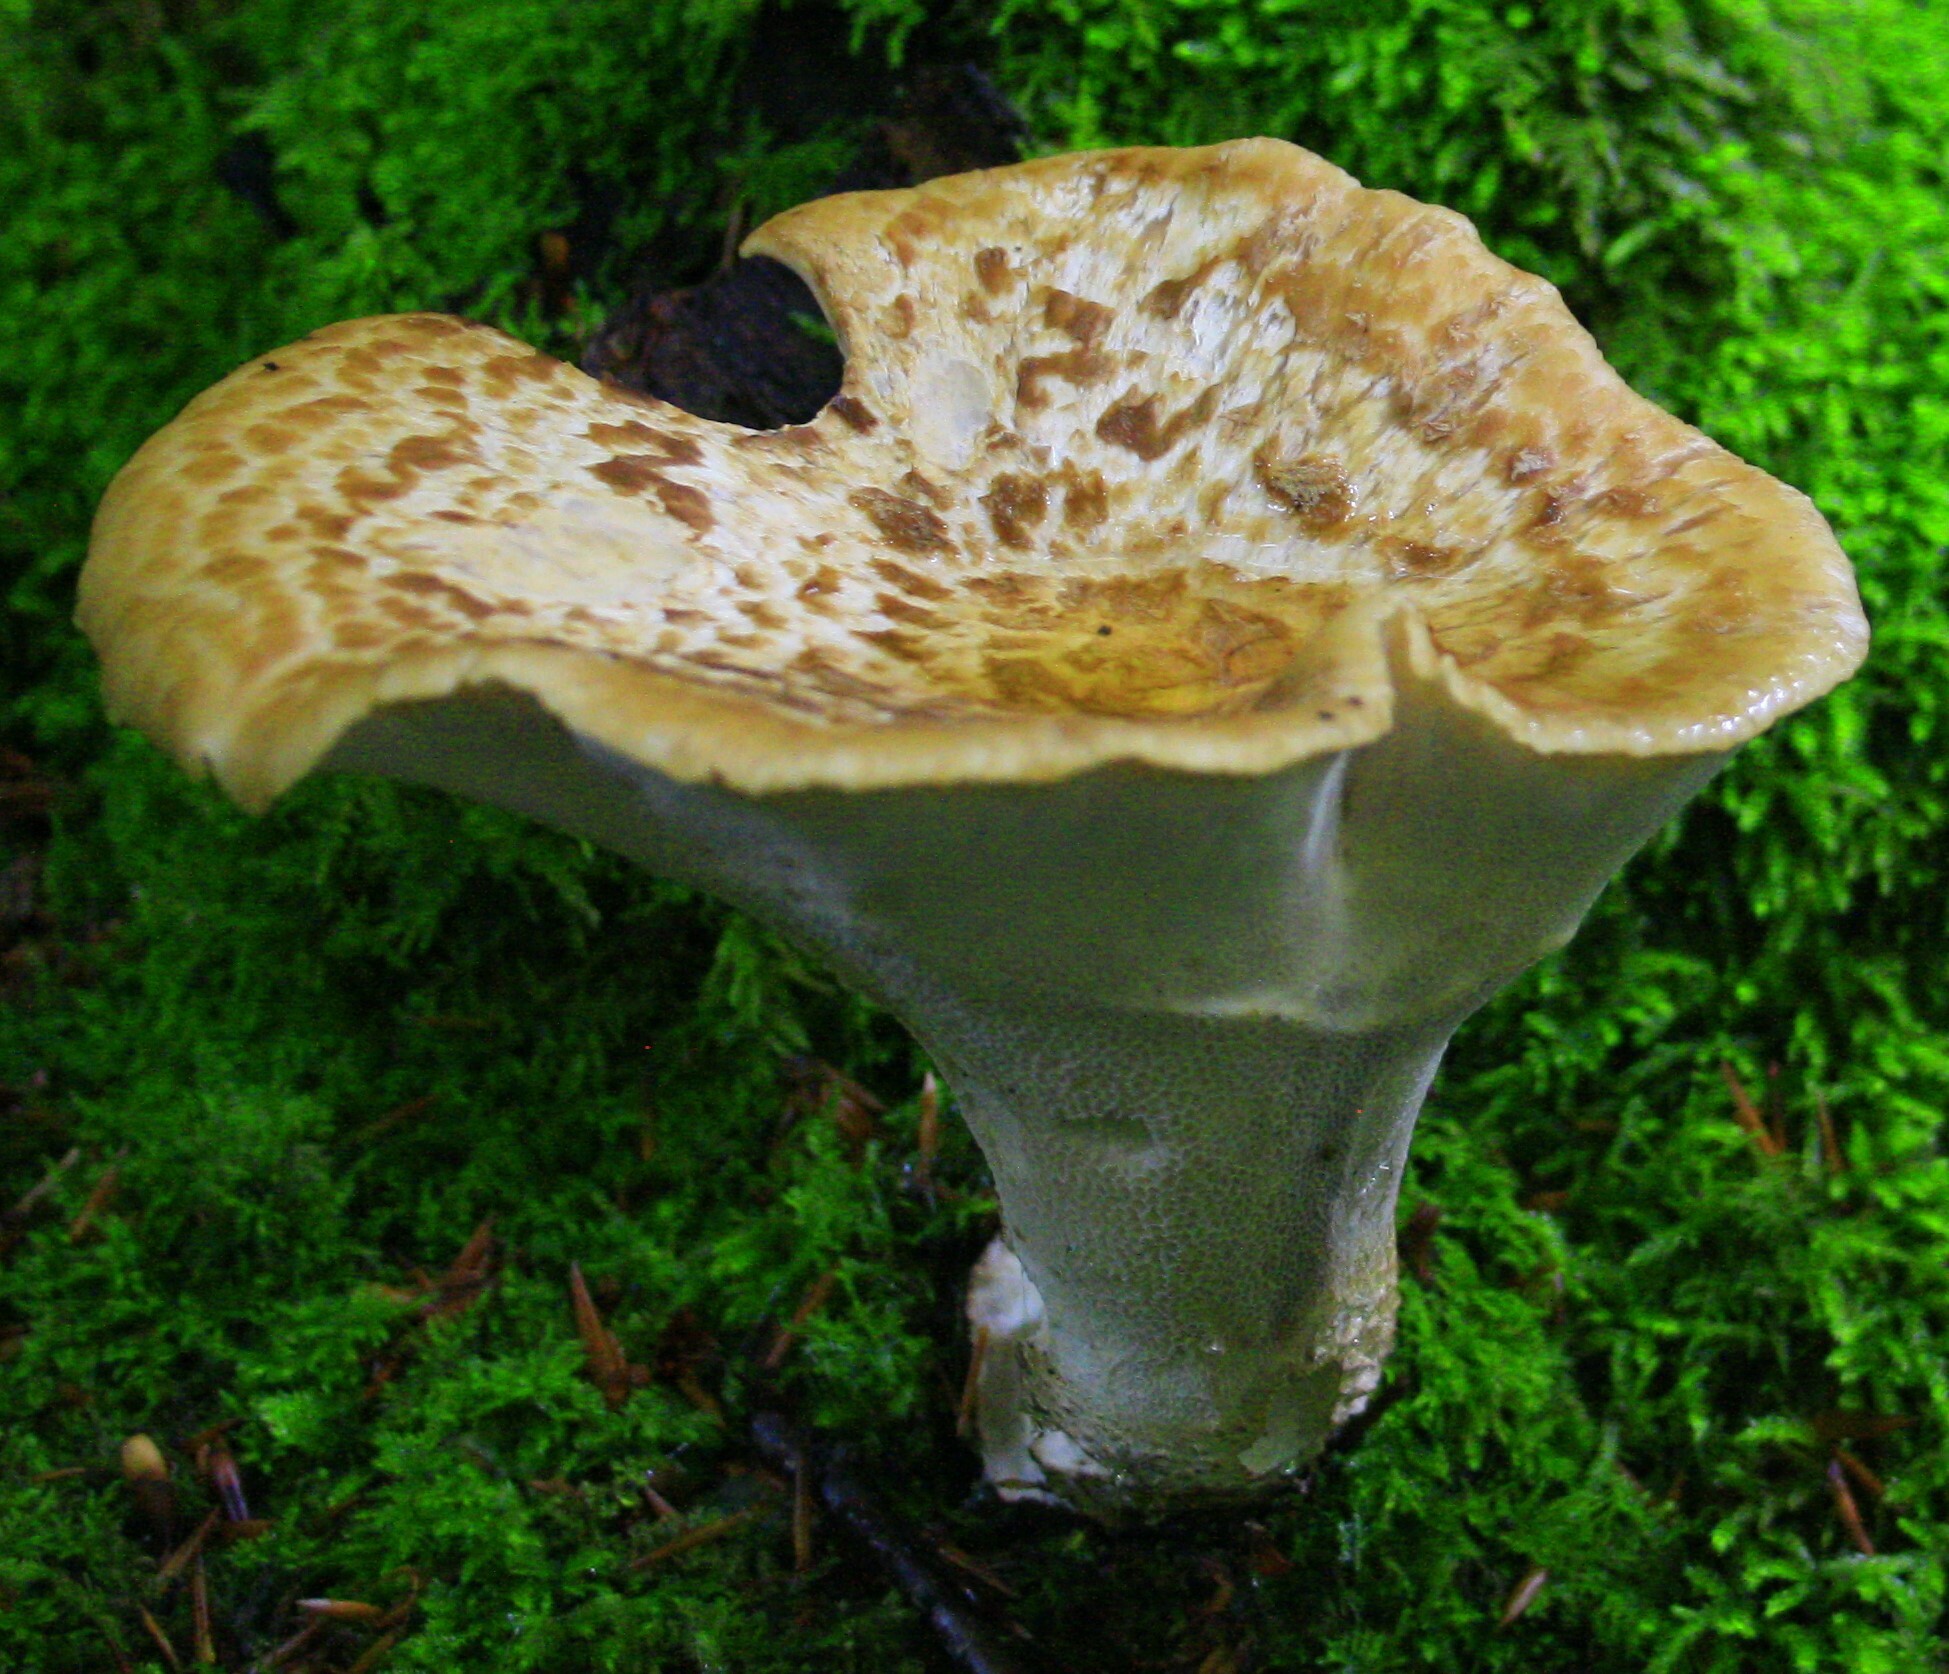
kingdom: Fungi
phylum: Basidiomycota
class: Agaricomycetes
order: Polyporales
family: Polyporaceae
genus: Cerioporus
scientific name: Cerioporus squamosus
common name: Dryad's saddle
